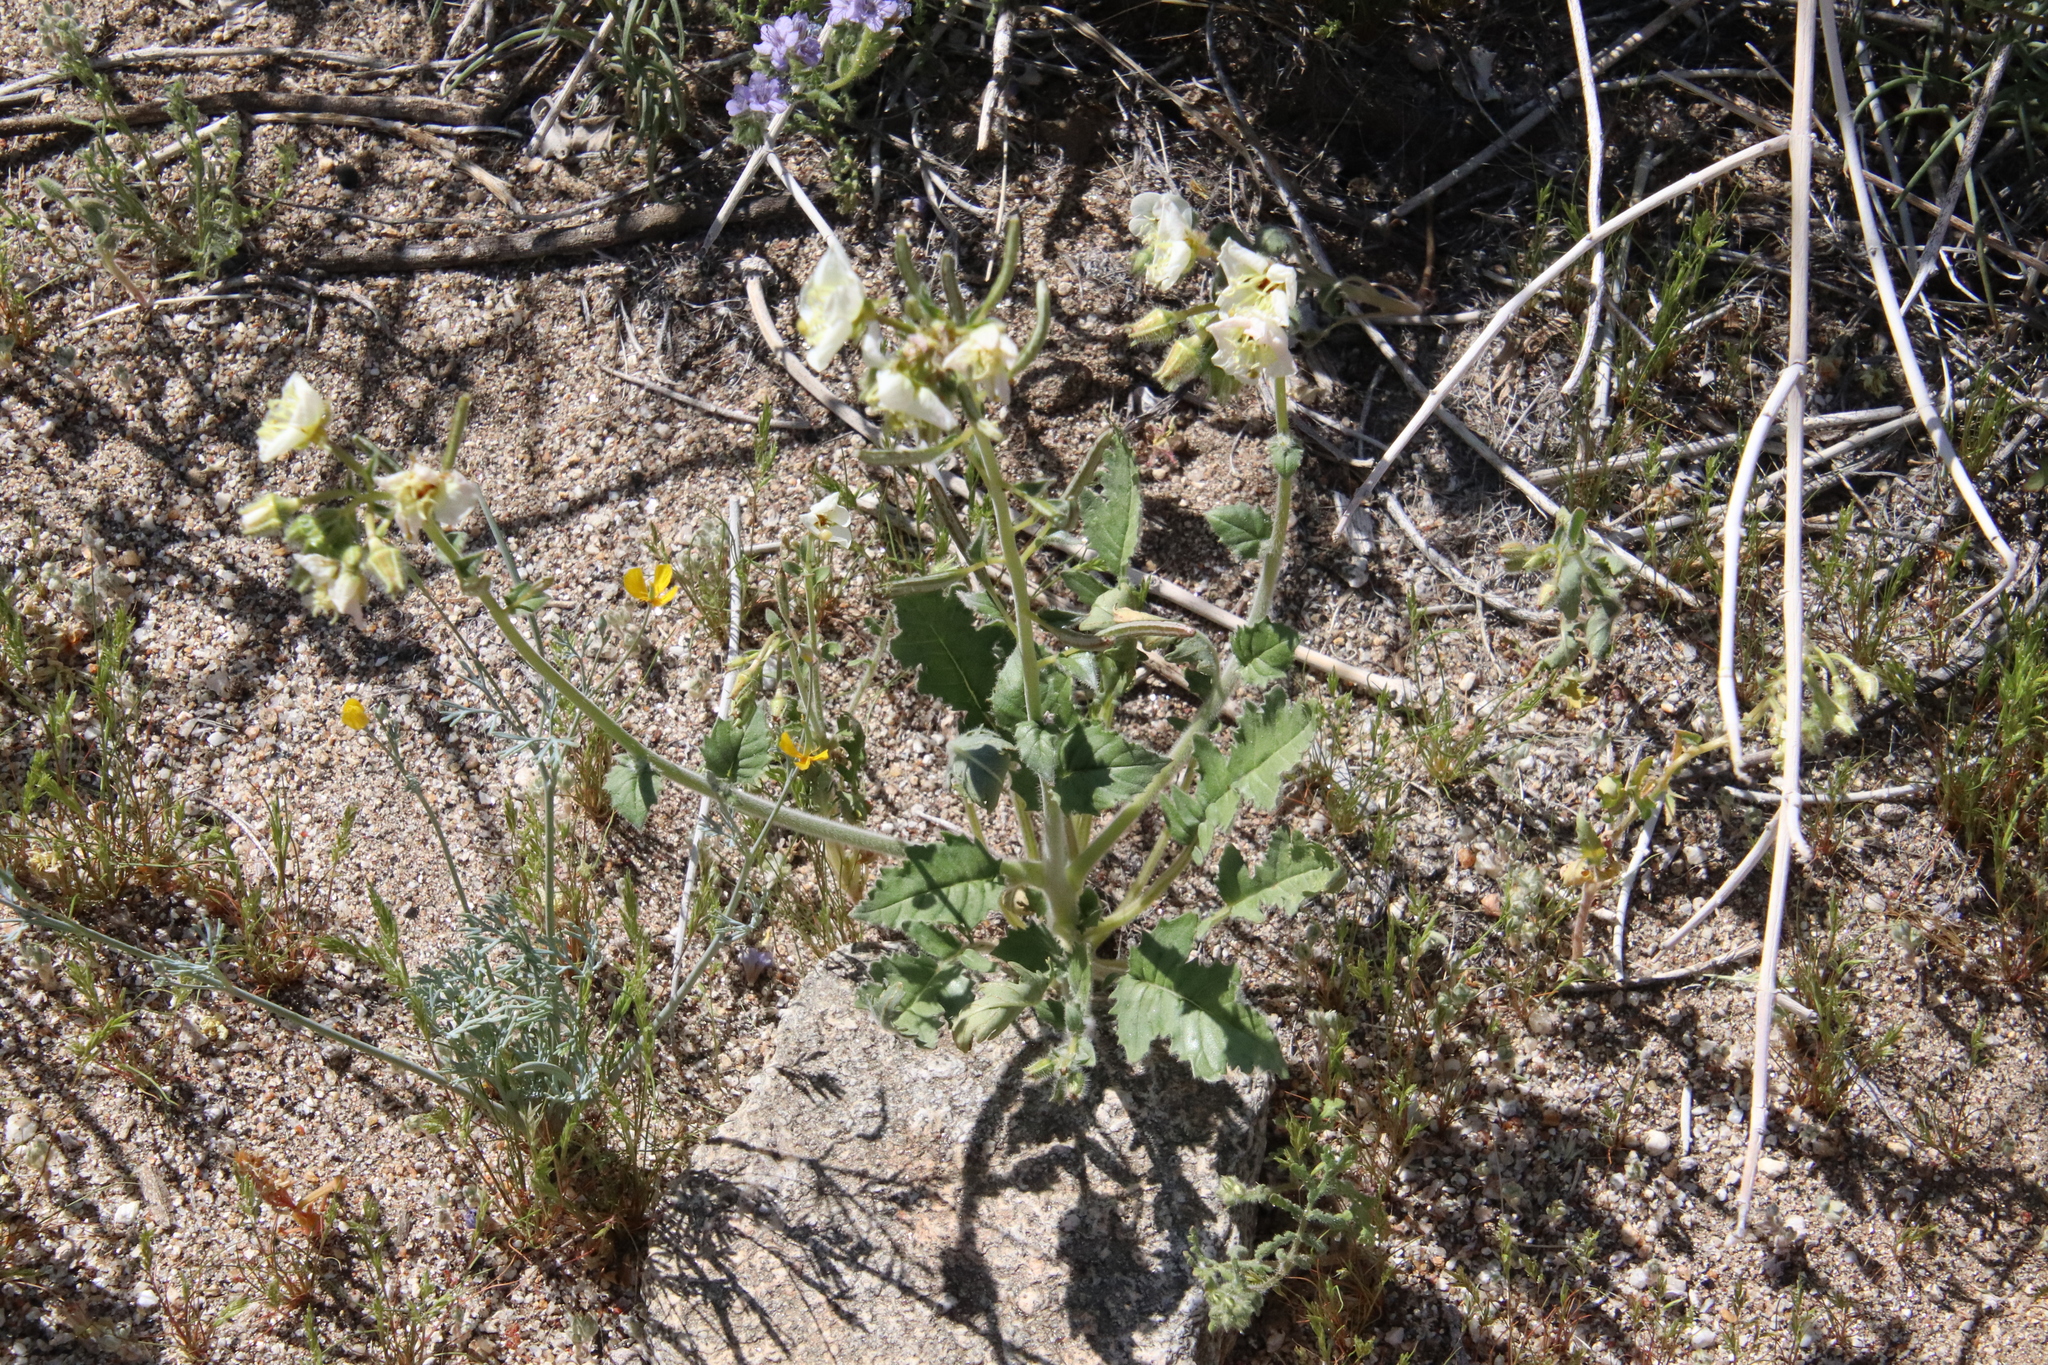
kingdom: Plantae
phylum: Tracheophyta
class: Magnoliopsida
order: Myrtales
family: Onagraceae
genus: Chylismia
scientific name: Chylismia claviformis
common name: Browneyes
